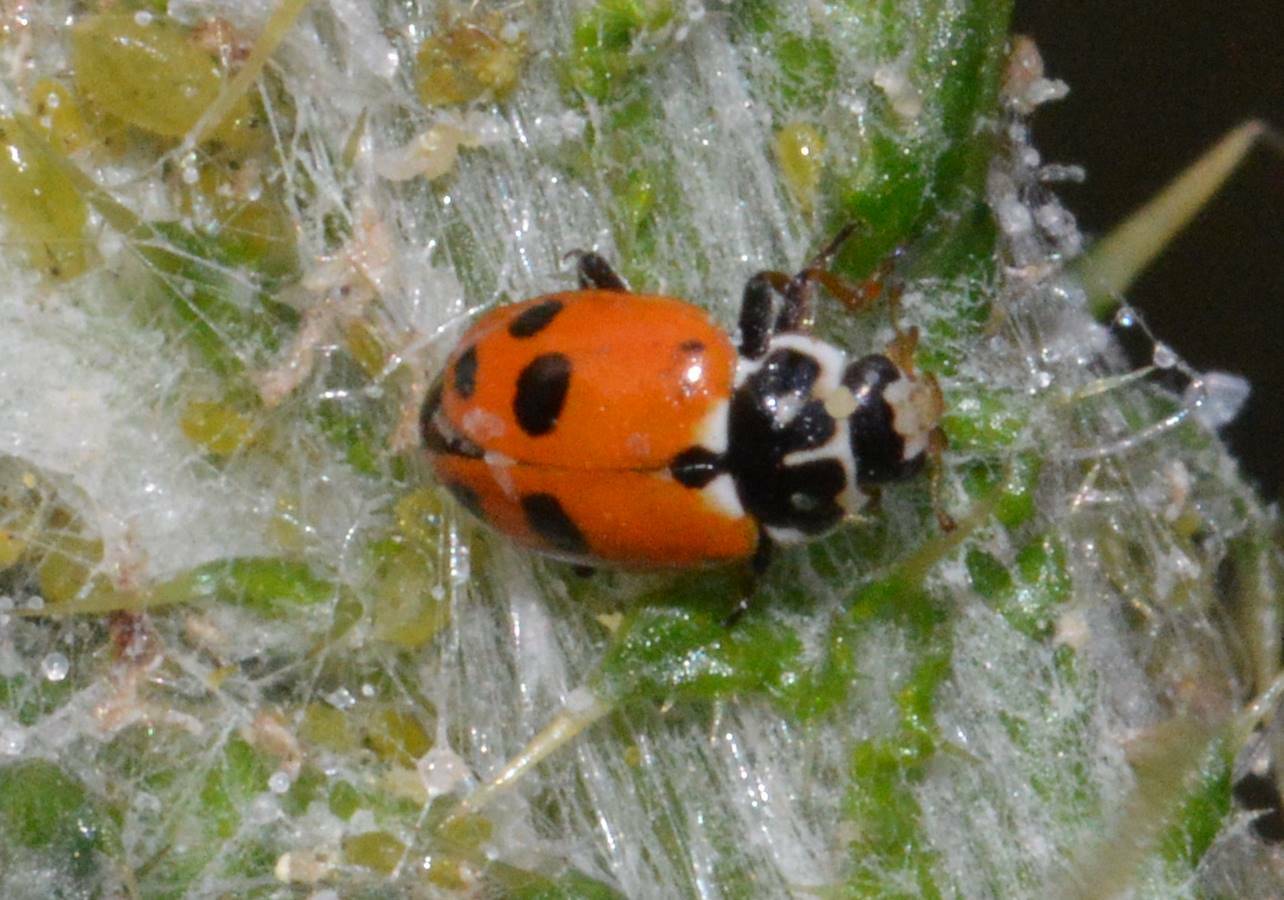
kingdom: Animalia
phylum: Arthropoda
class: Insecta
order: Coleoptera
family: Coccinellidae
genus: Hippodamia
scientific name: Hippodamia variegata
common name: Ladybird beetle
